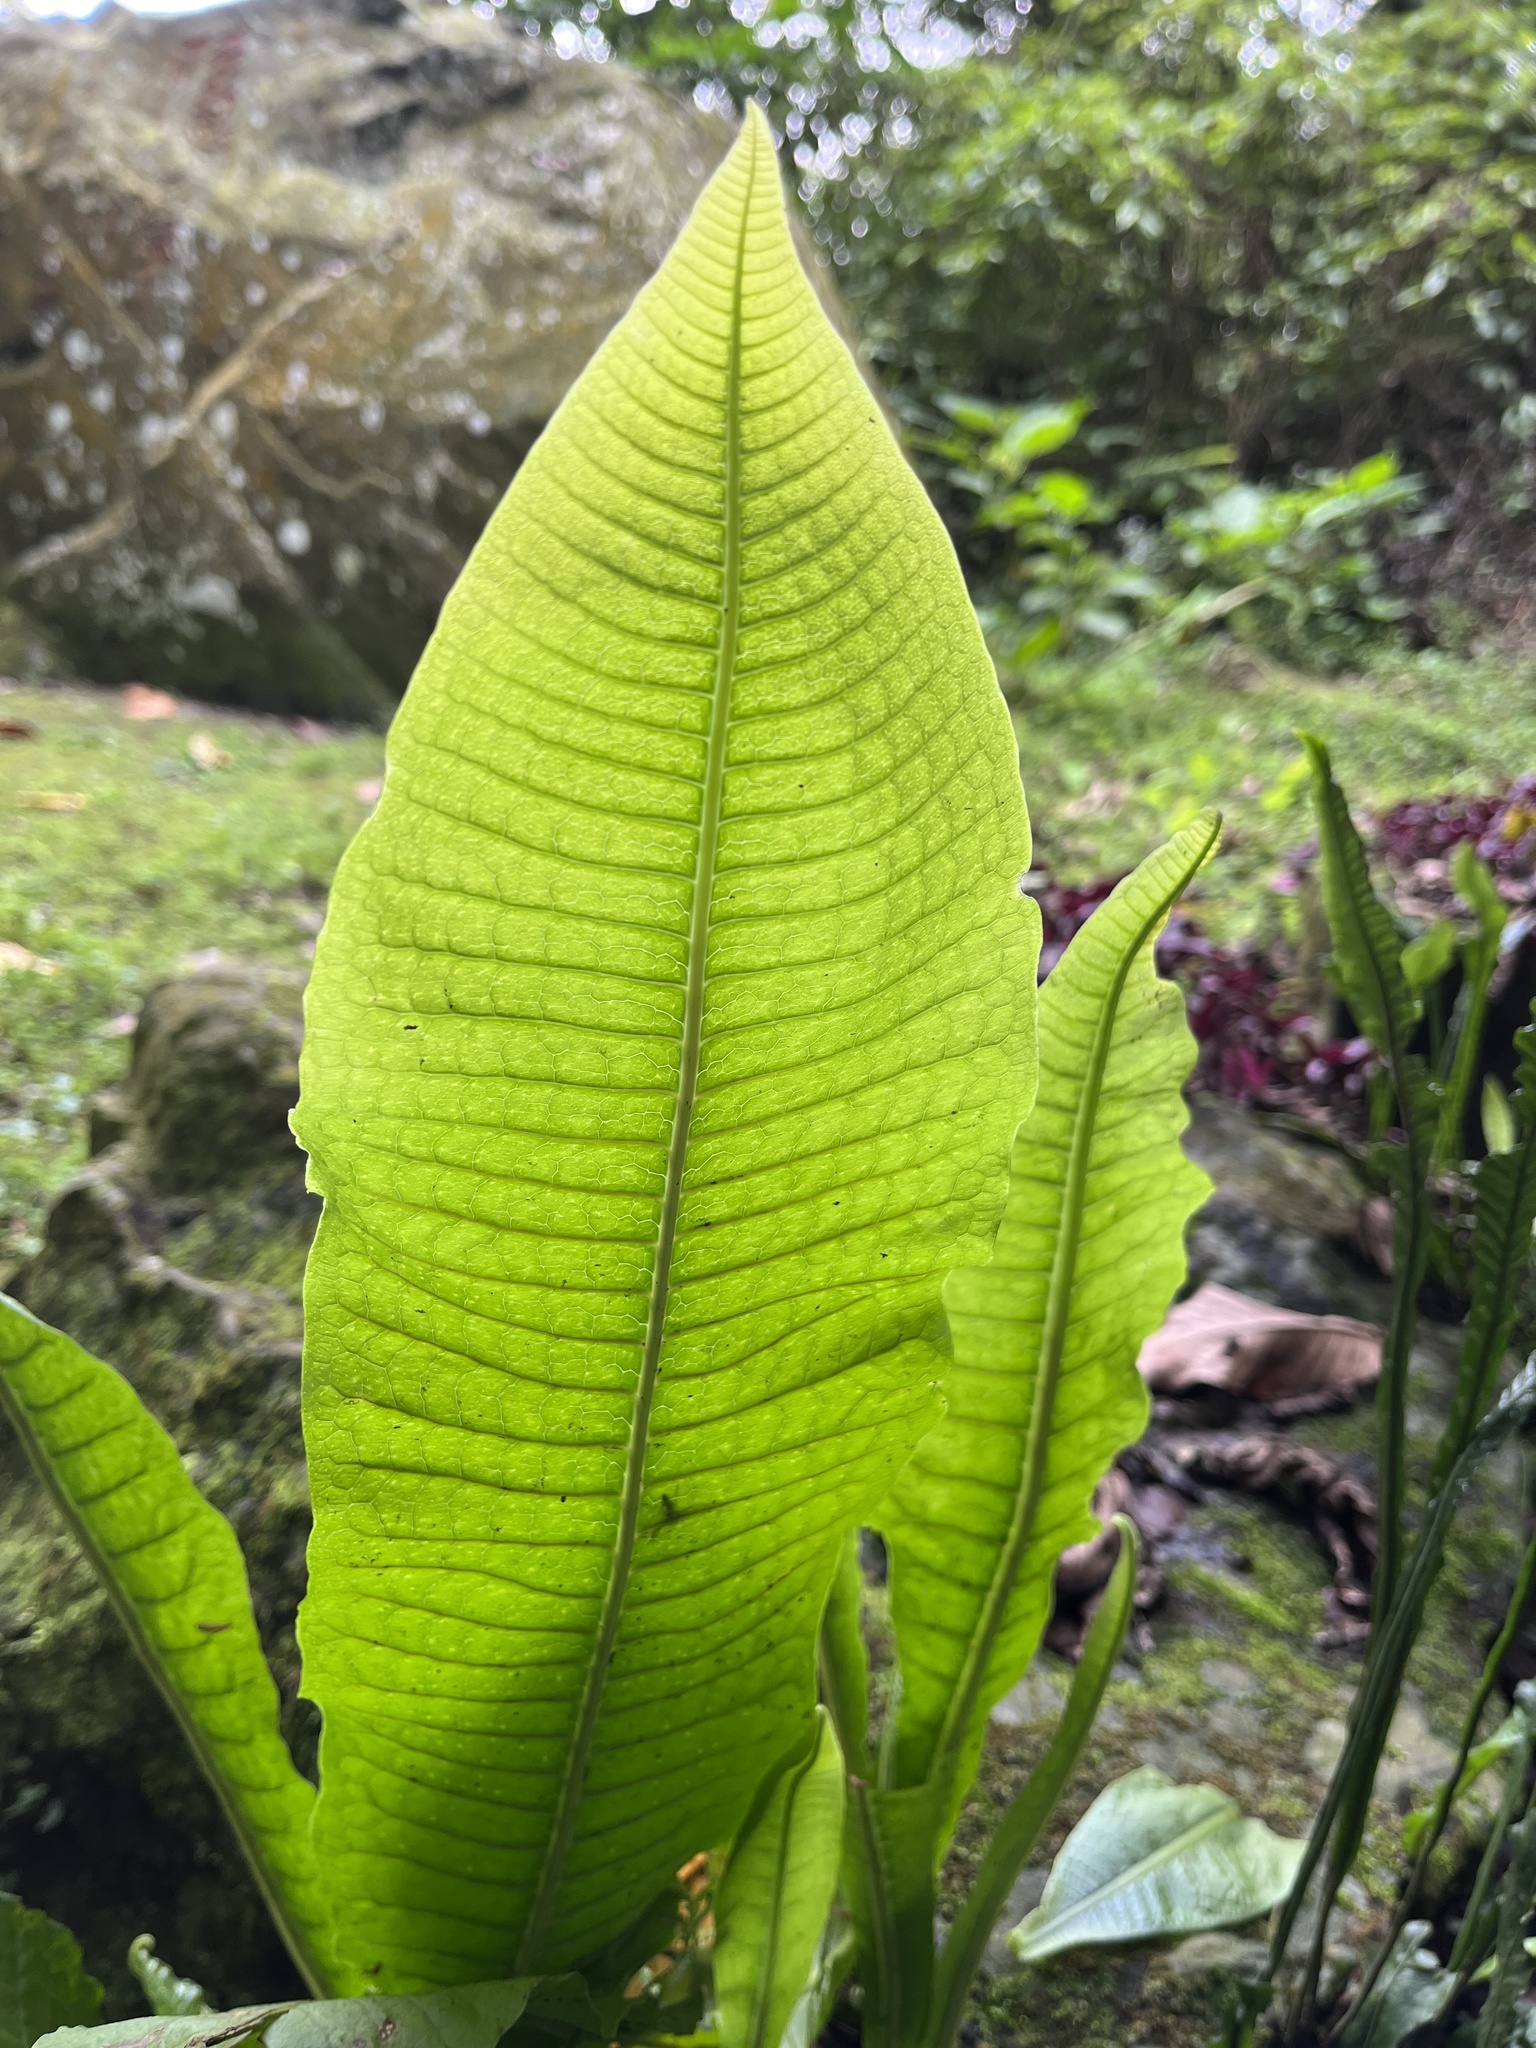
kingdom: Plantae
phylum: Tracheophyta
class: Polypodiopsida
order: Polypodiales
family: Polypodiaceae
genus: Bosmania
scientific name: Bosmania membranacea
